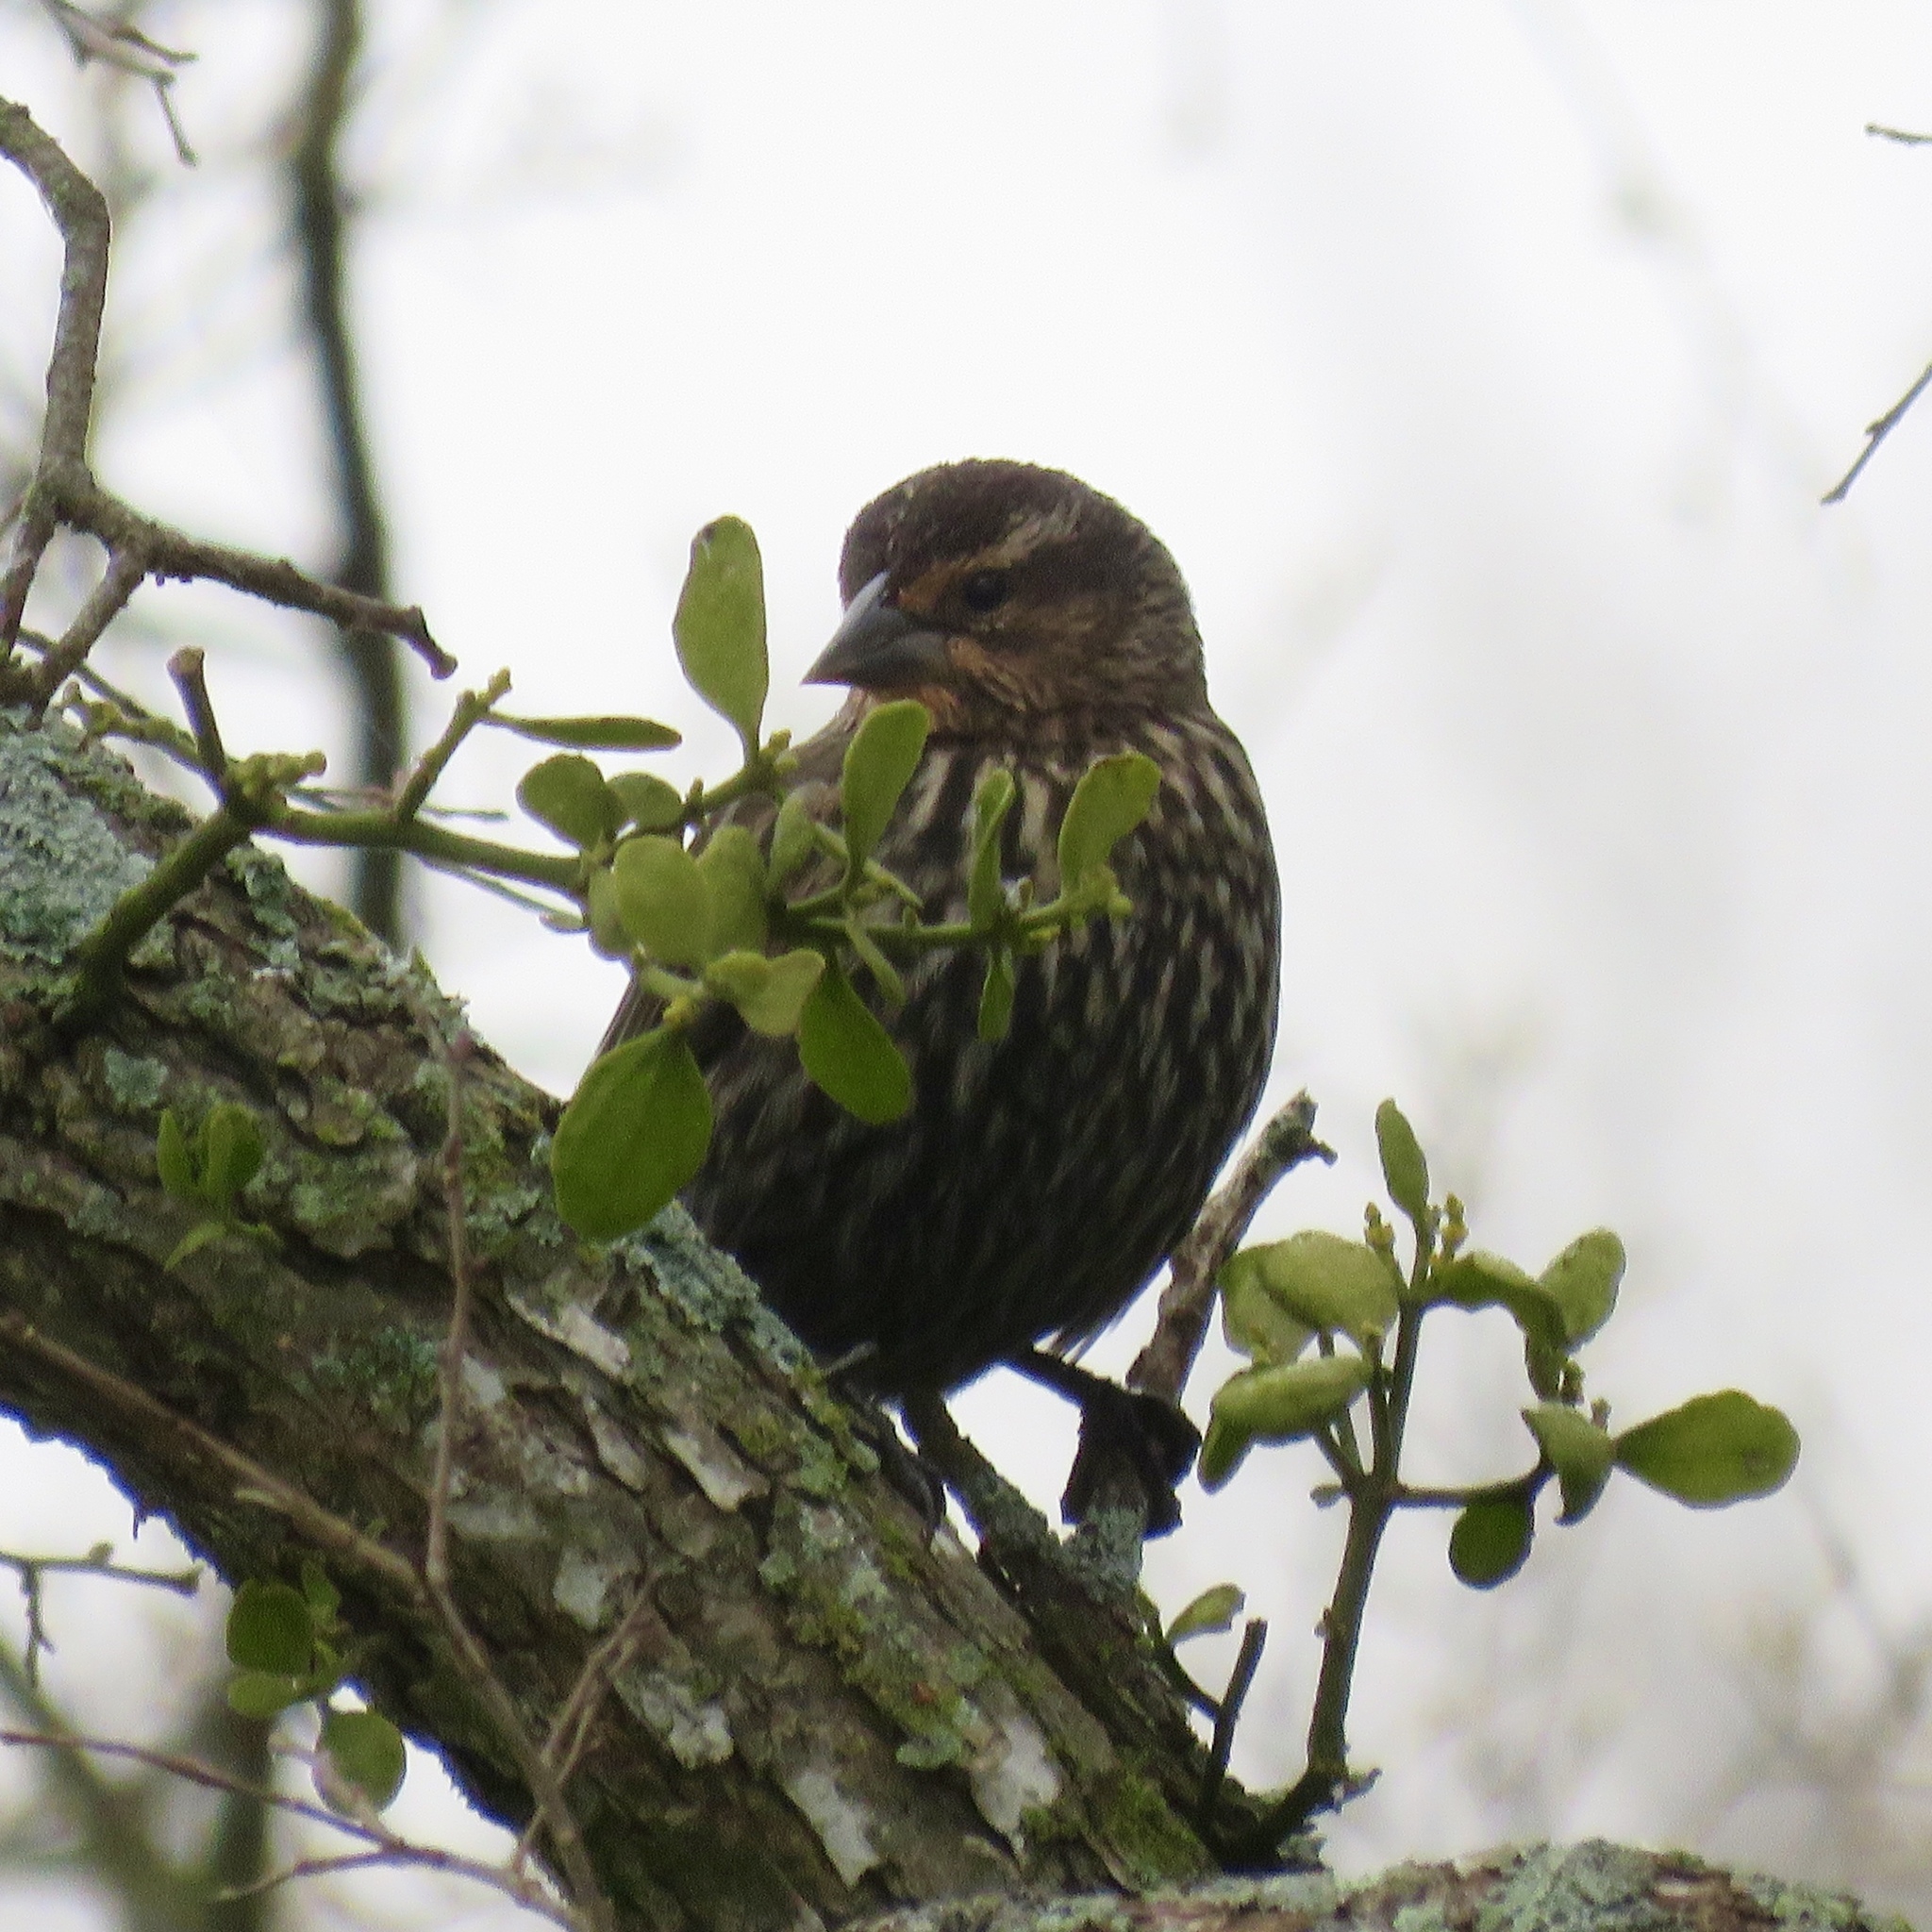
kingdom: Animalia
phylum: Chordata
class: Aves
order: Passeriformes
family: Icteridae
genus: Agelaius
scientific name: Agelaius phoeniceus
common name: Red-winged blackbird
